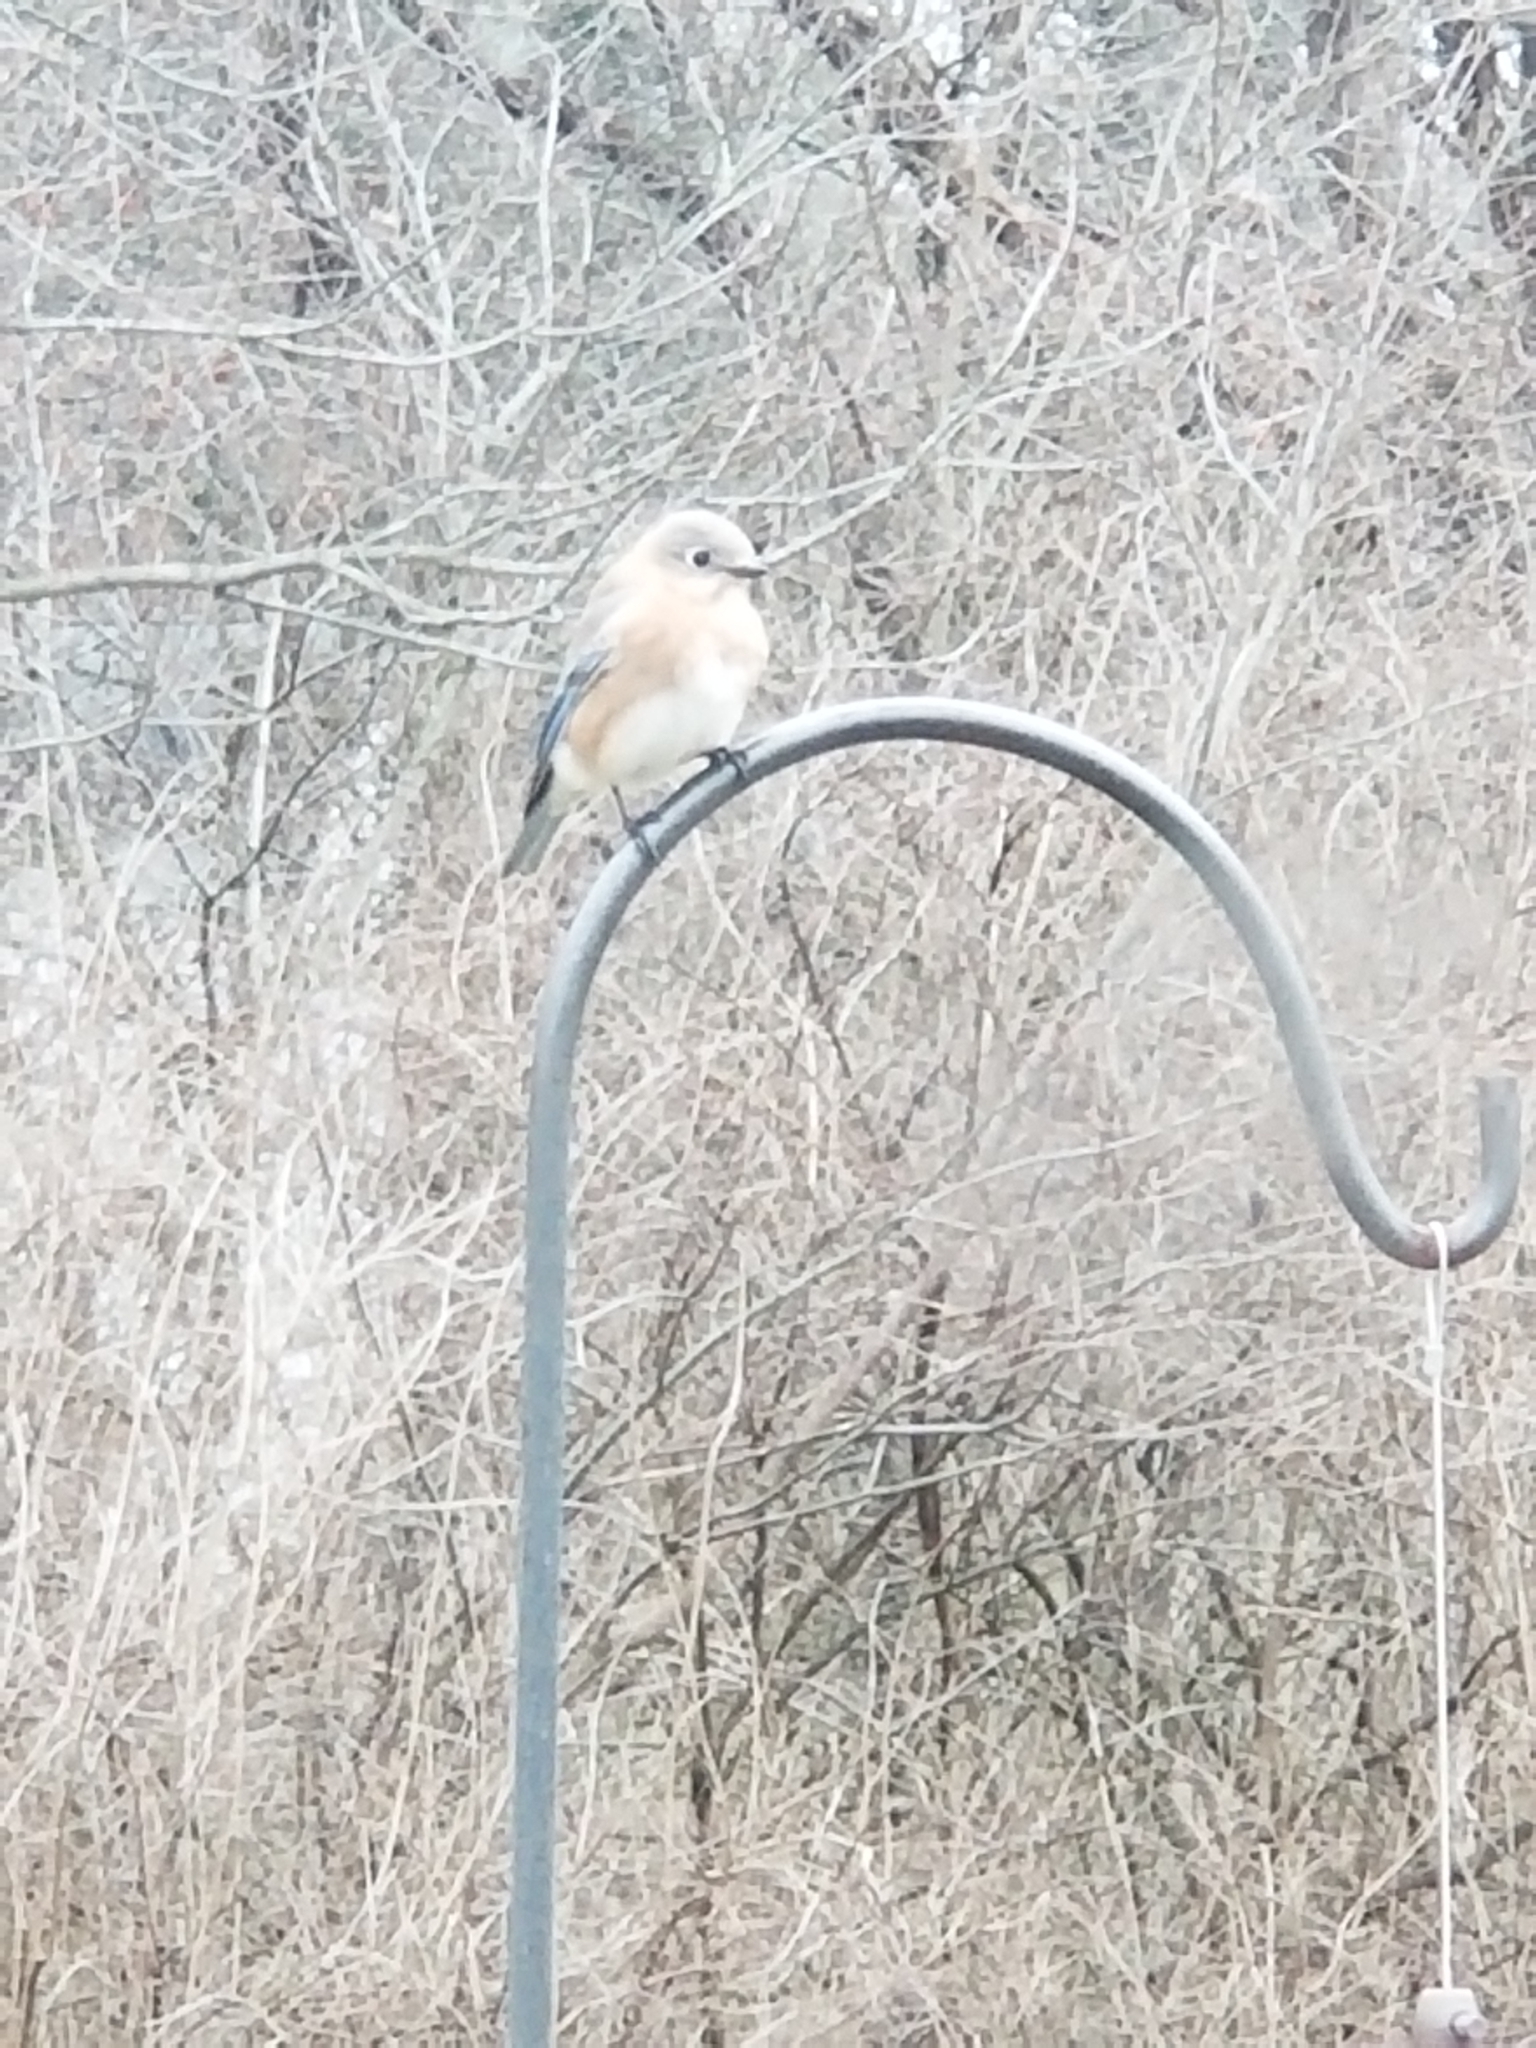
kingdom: Animalia
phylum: Chordata
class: Aves
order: Passeriformes
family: Turdidae
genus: Sialia
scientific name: Sialia sialis
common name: Eastern bluebird
